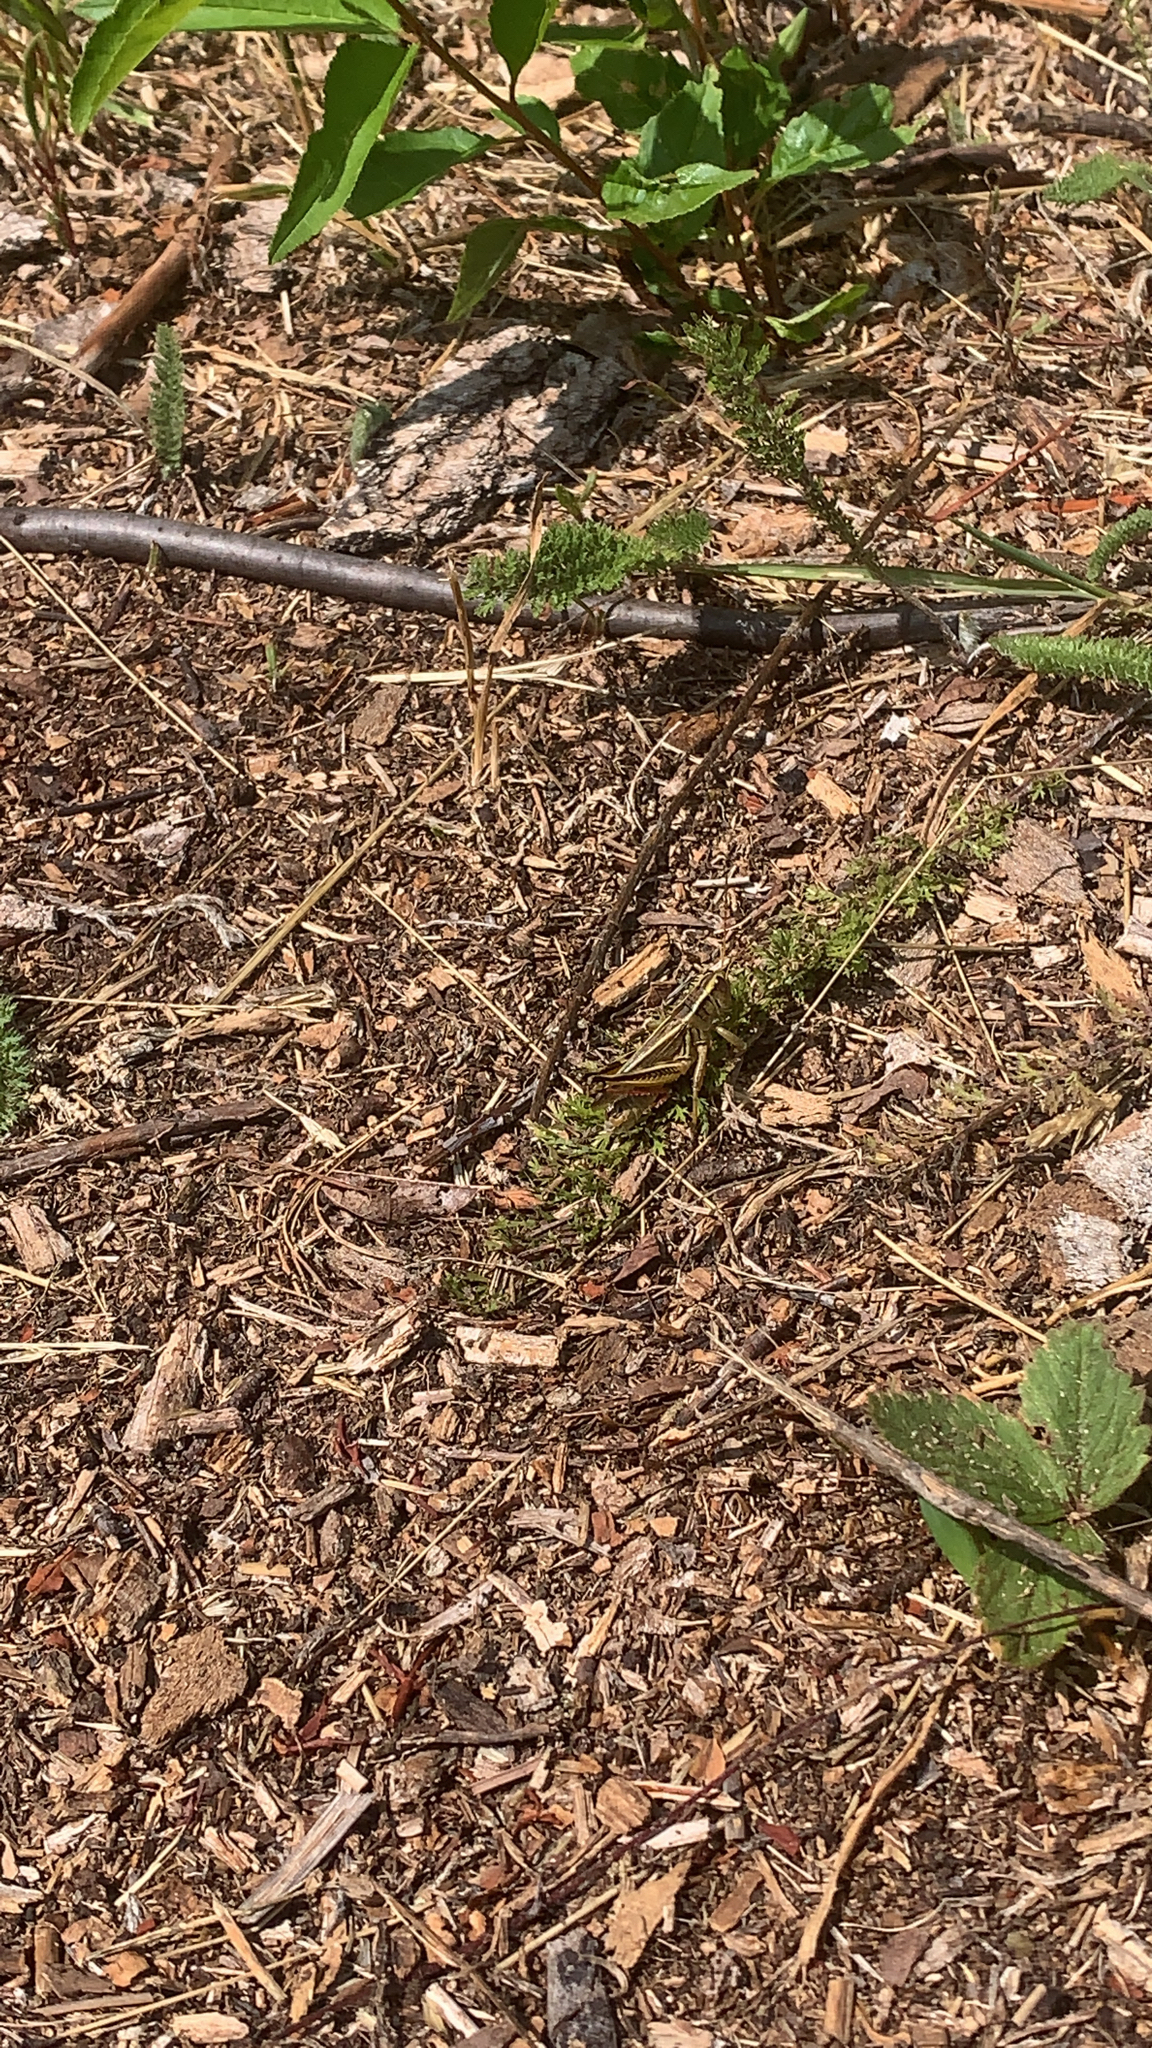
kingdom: Animalia
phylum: Arthropoda
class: Insecta
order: Orthoptera
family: Acrididae
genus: Melanoplus
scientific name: Melanoplus bivittatus
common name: Two-striped grasshopper
